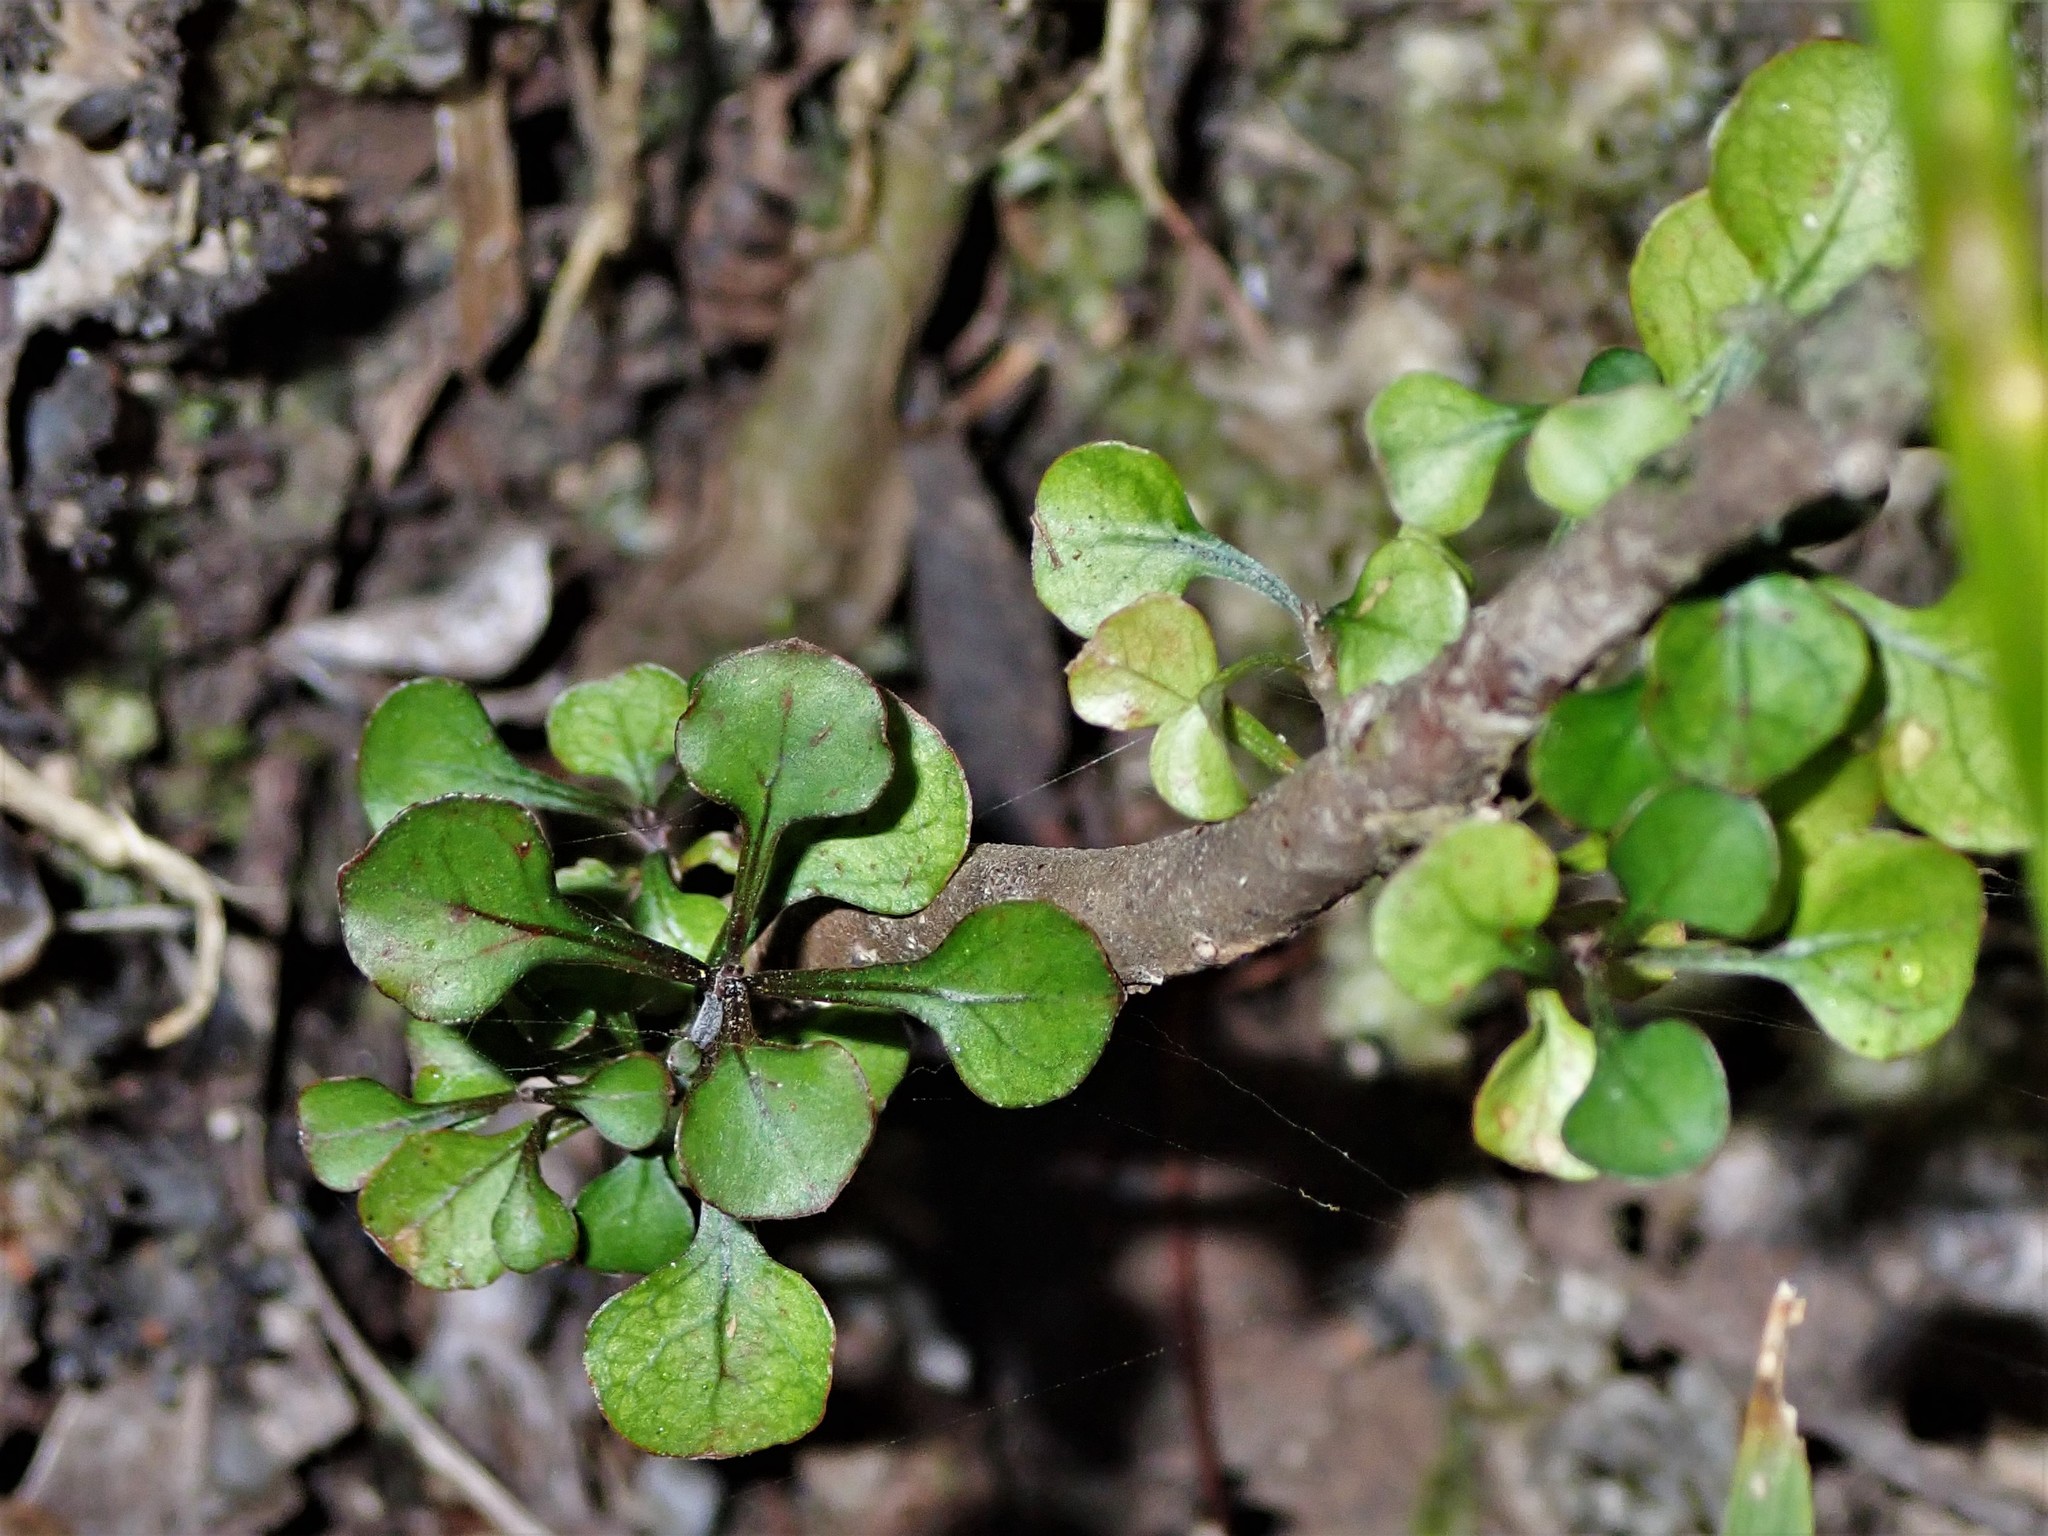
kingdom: Plantae
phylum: Tracheophyta
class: Magnoliopsida
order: Gentianales
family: Rubiaceae
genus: Coprosma
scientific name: Coprosma arborea
